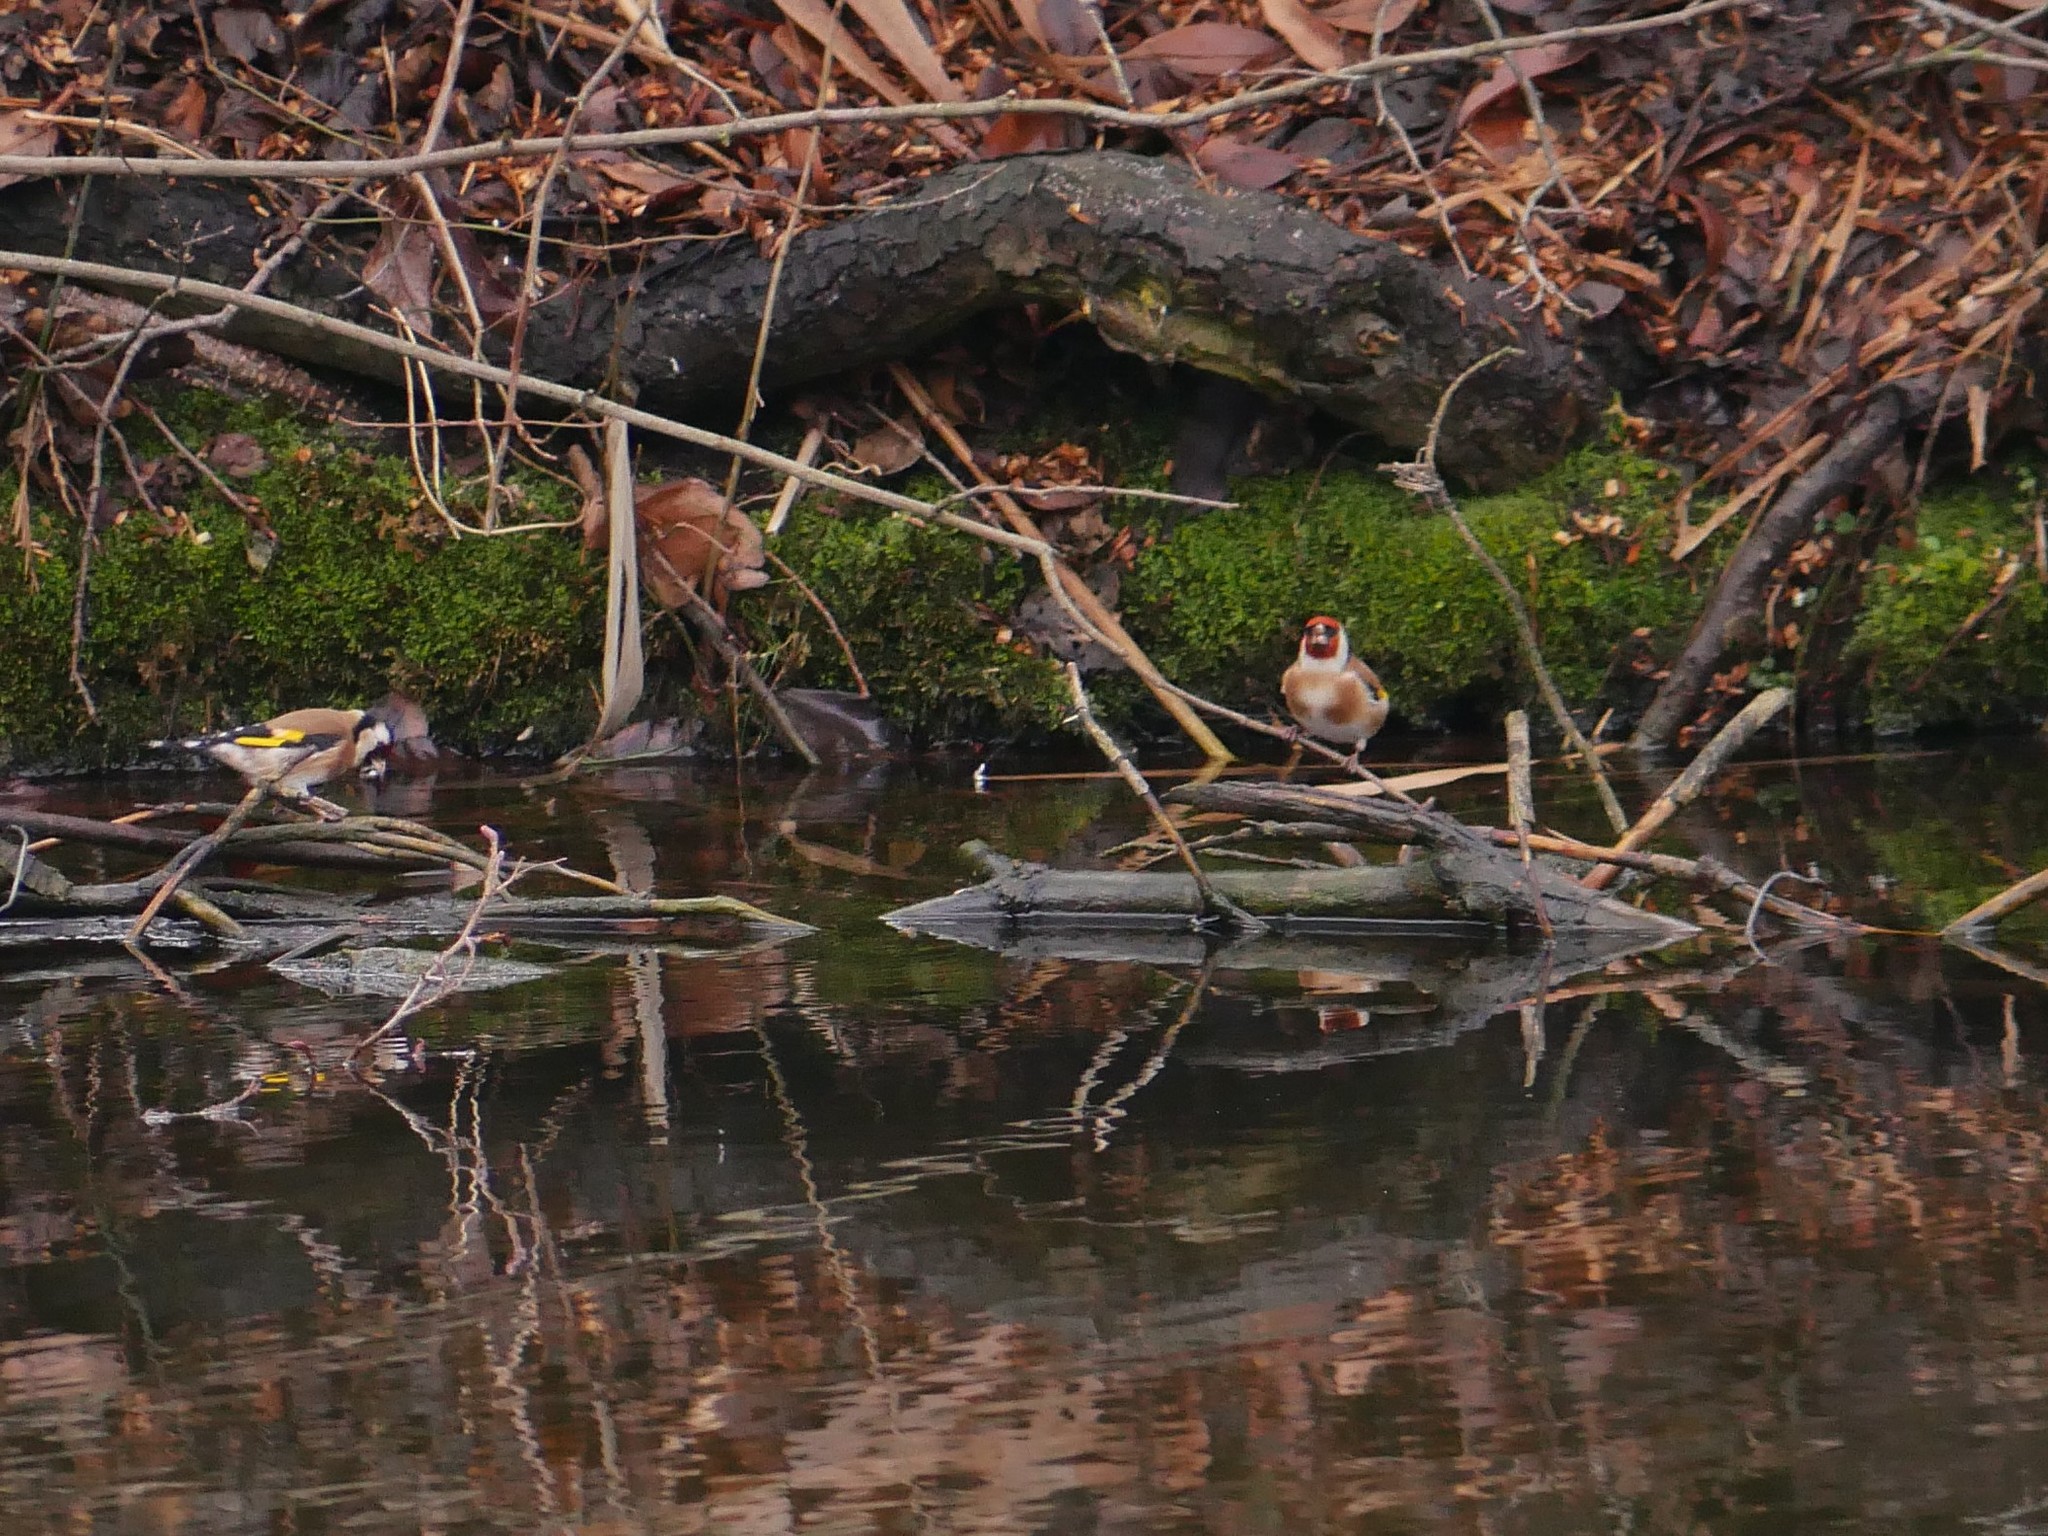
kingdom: Animalia
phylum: Chordata
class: Aves
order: Passeriformes
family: Fringillidae
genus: Carduelis
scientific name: Carduelis carduelis
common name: European goldfinch
